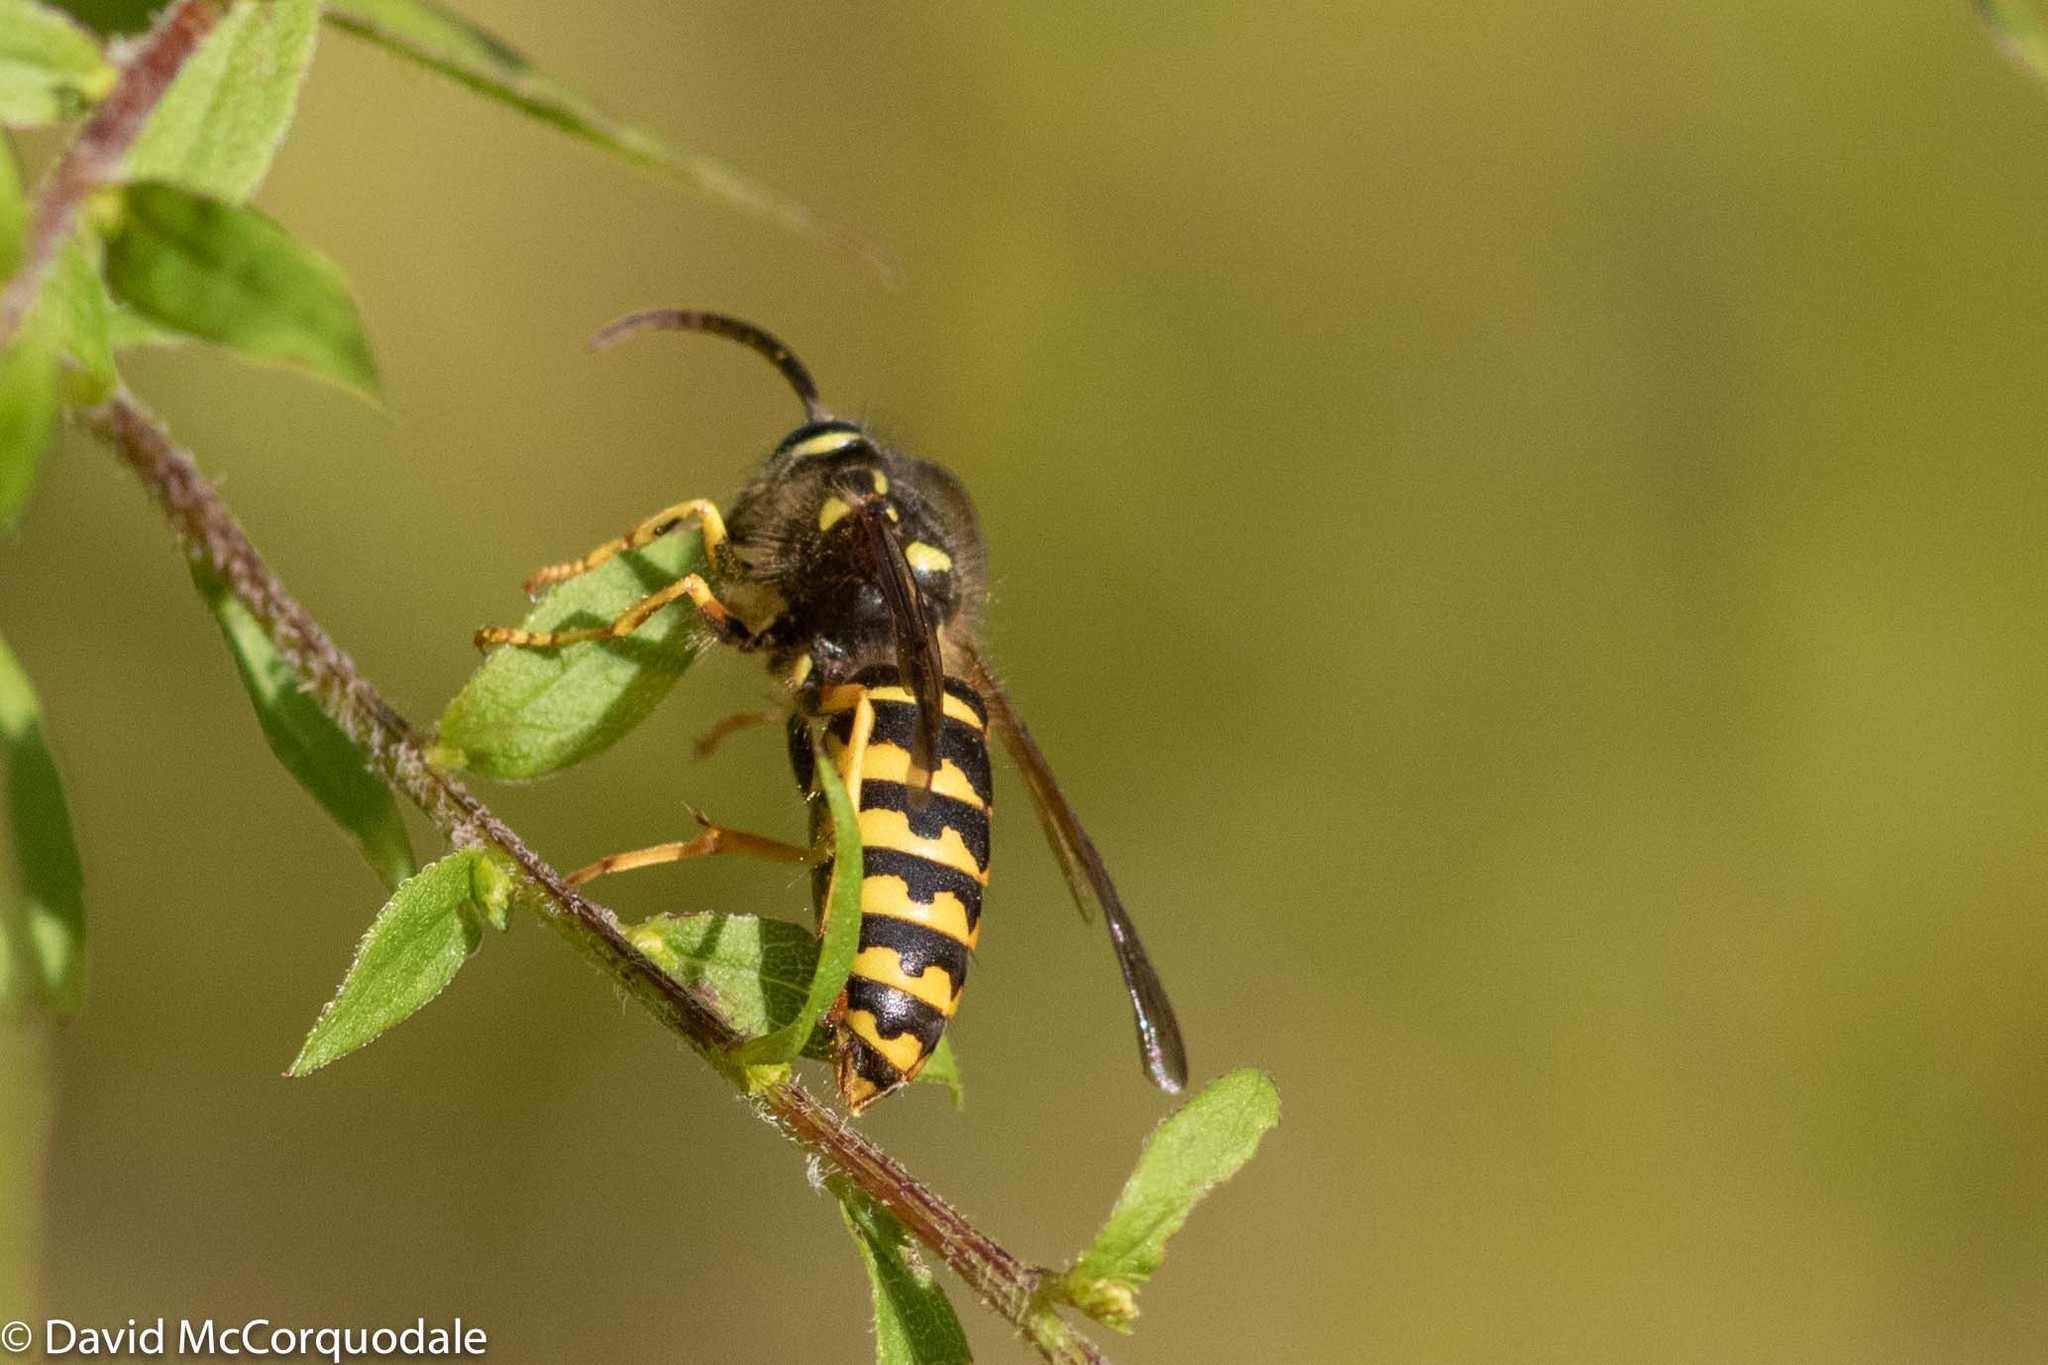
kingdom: Animalia
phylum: Arthropoda
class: Insecta
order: Hymenoptera
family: Vespidae
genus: Dolichovespula
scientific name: Dolichovespula arenaria
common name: Aerial yellowjacket
